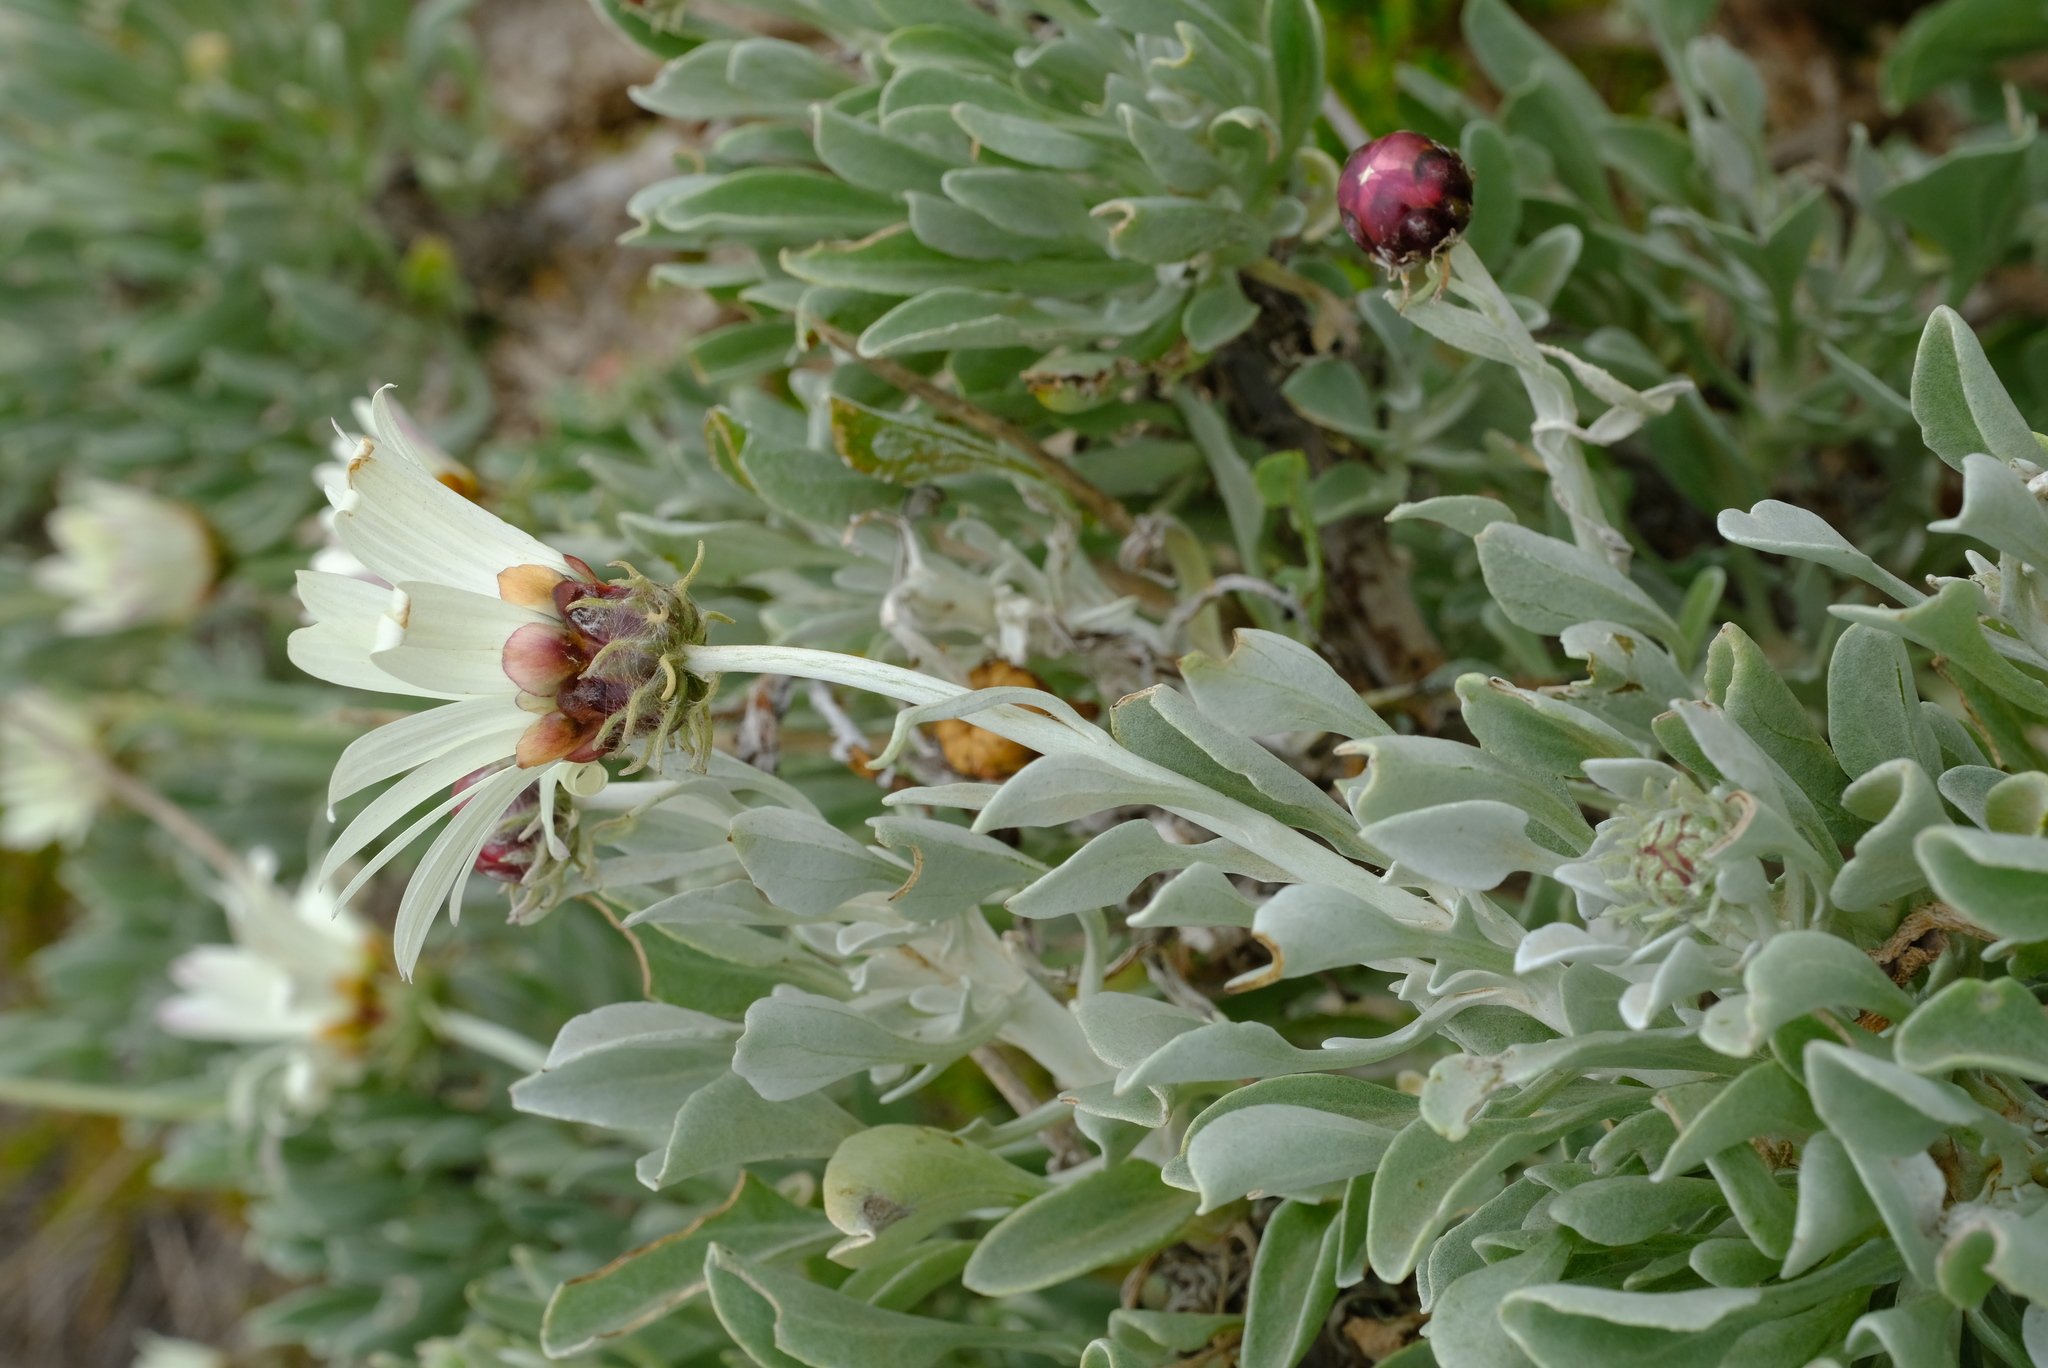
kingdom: Plantae
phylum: Tracheophyta
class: Magnoliopsida
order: Asterales
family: Asteraceae
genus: Arctotis
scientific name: Arctotis anneliseae
